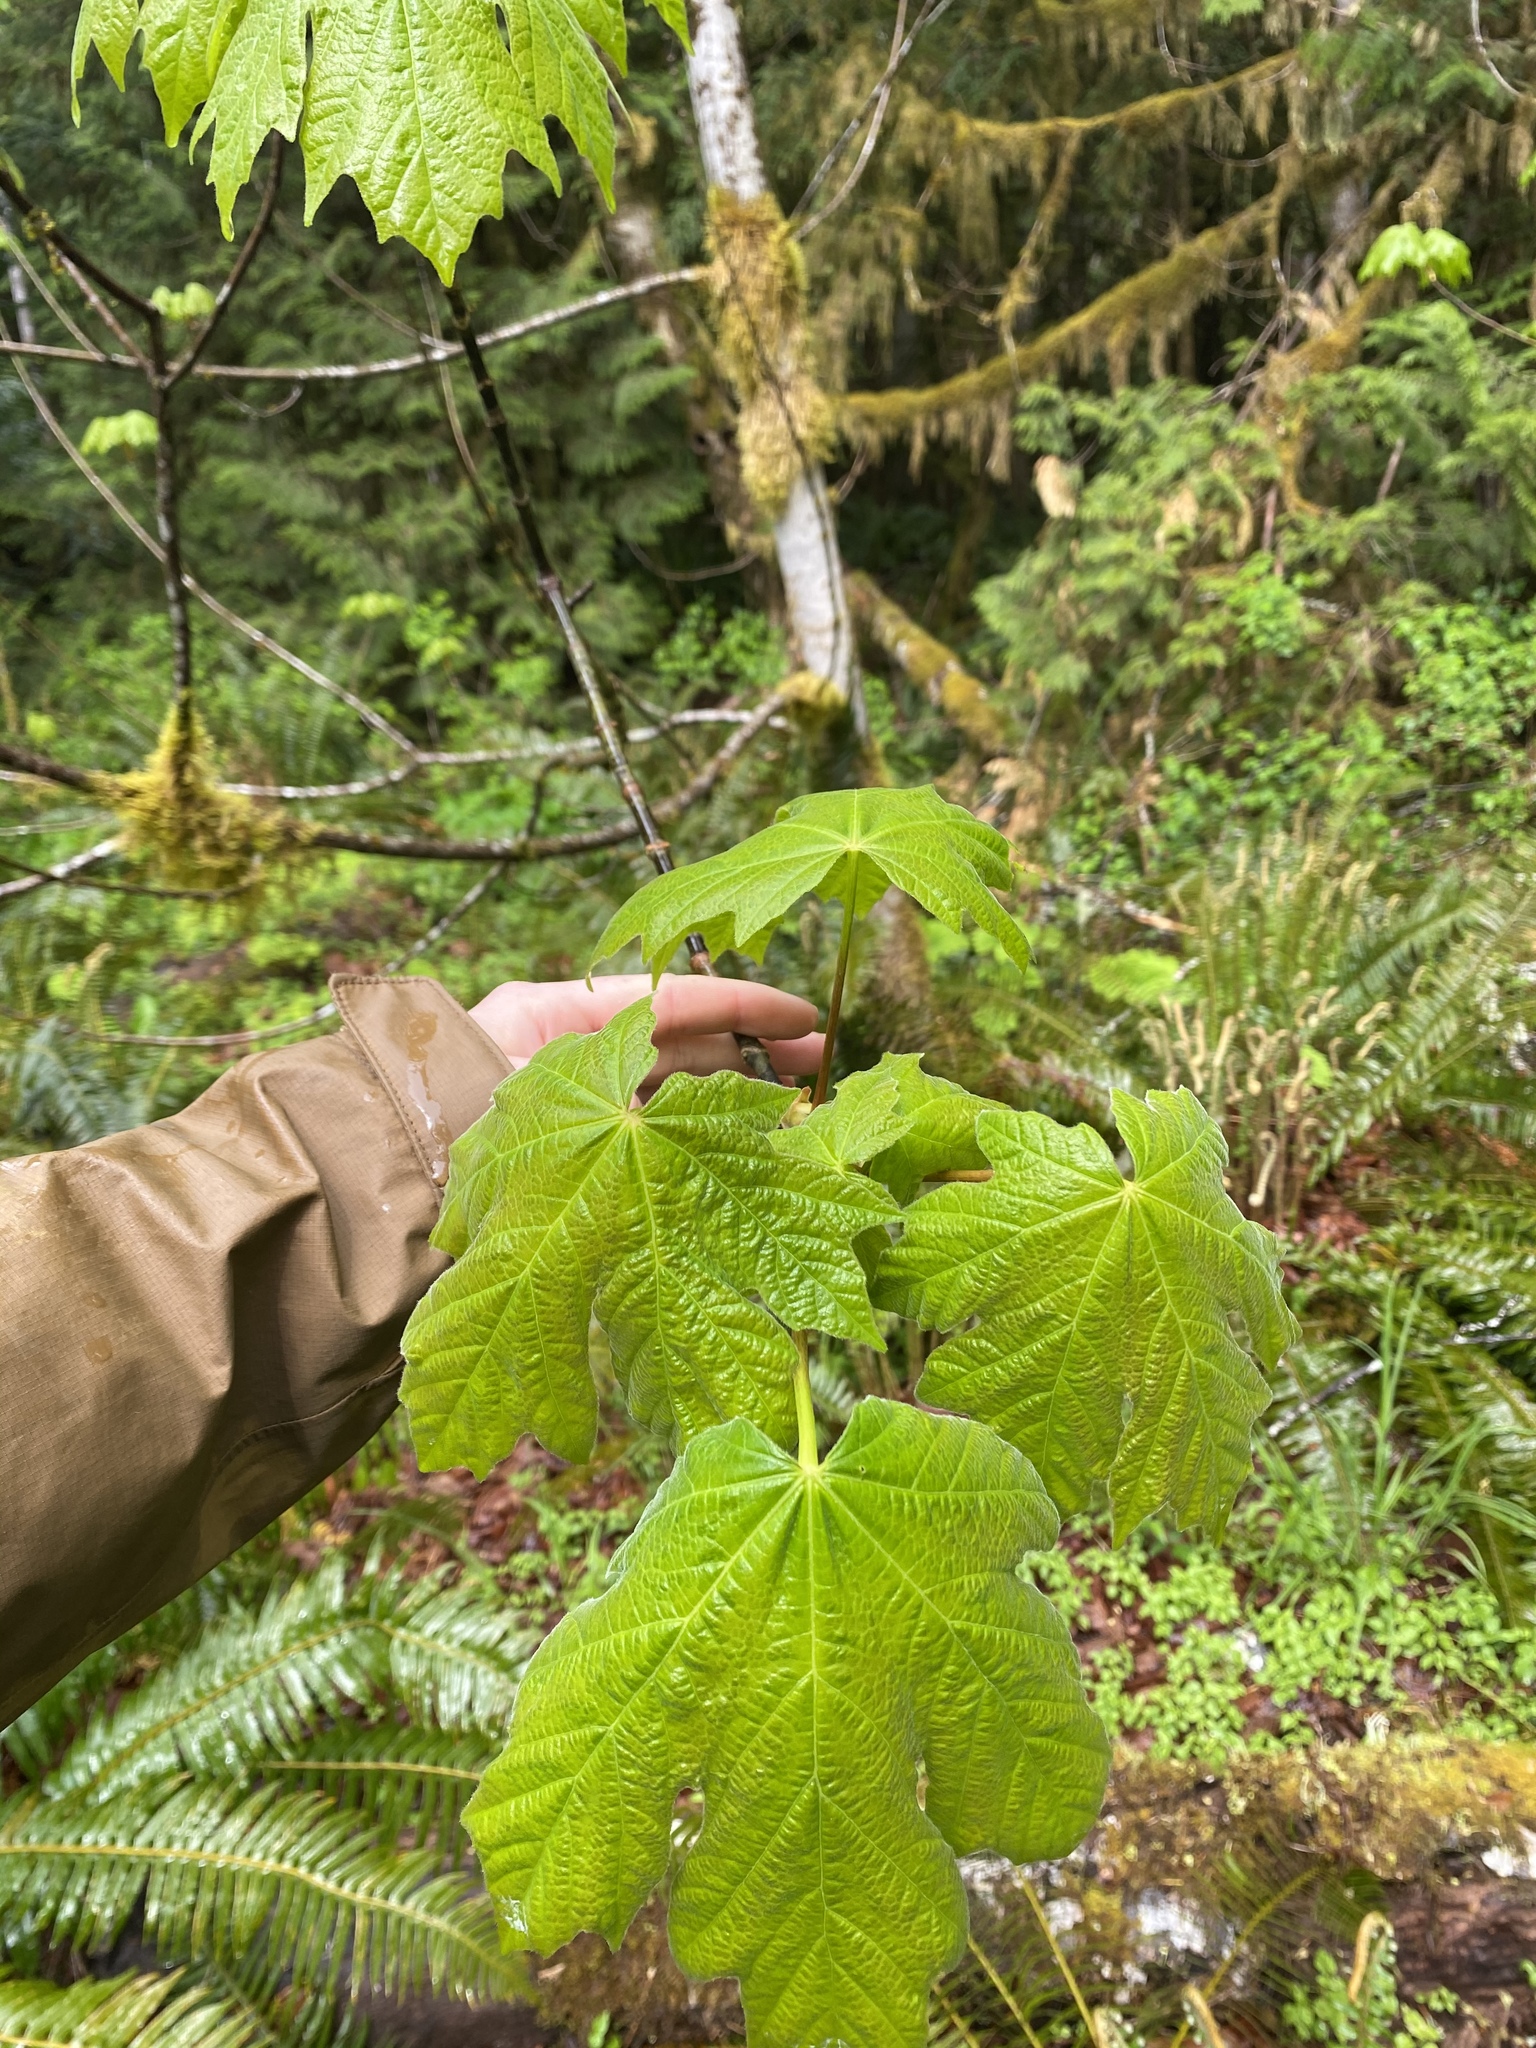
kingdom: Plantae
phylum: Tracheophyta
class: Magnoliopsida
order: Sapindales
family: Sapindaceae
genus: Acer
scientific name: Acer macrophyllum
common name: Oregon maple
